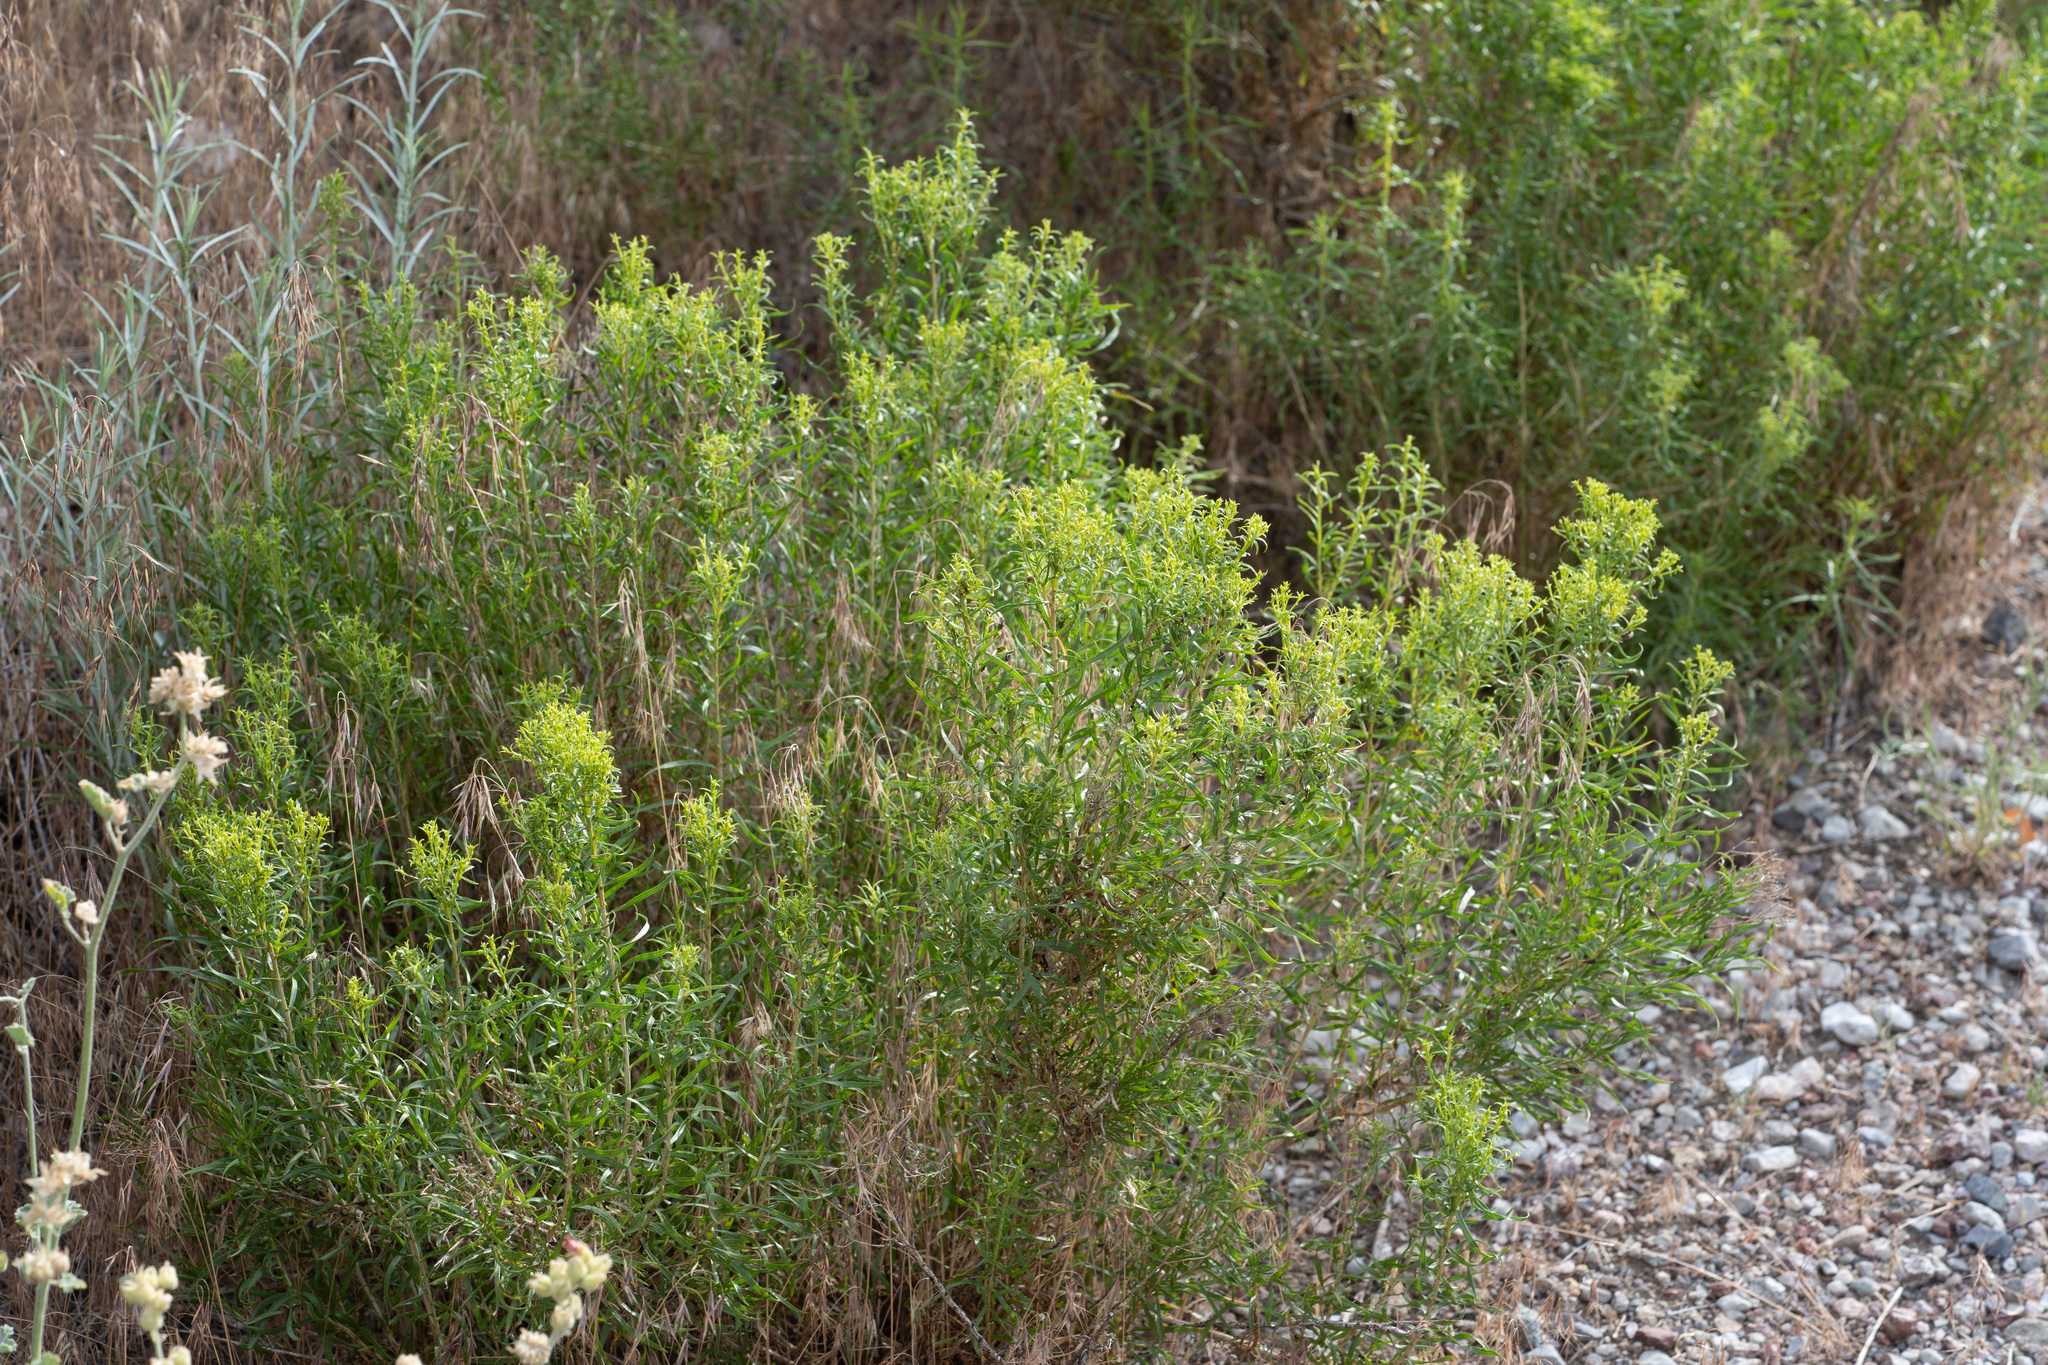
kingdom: Plantae
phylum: Tracheophyta
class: Magnoliopsida
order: Asterales
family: Asteraceae
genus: Chrysothamnus
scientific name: Chrysothamnus viscidiflorus
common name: Yellow rabbitbrush
